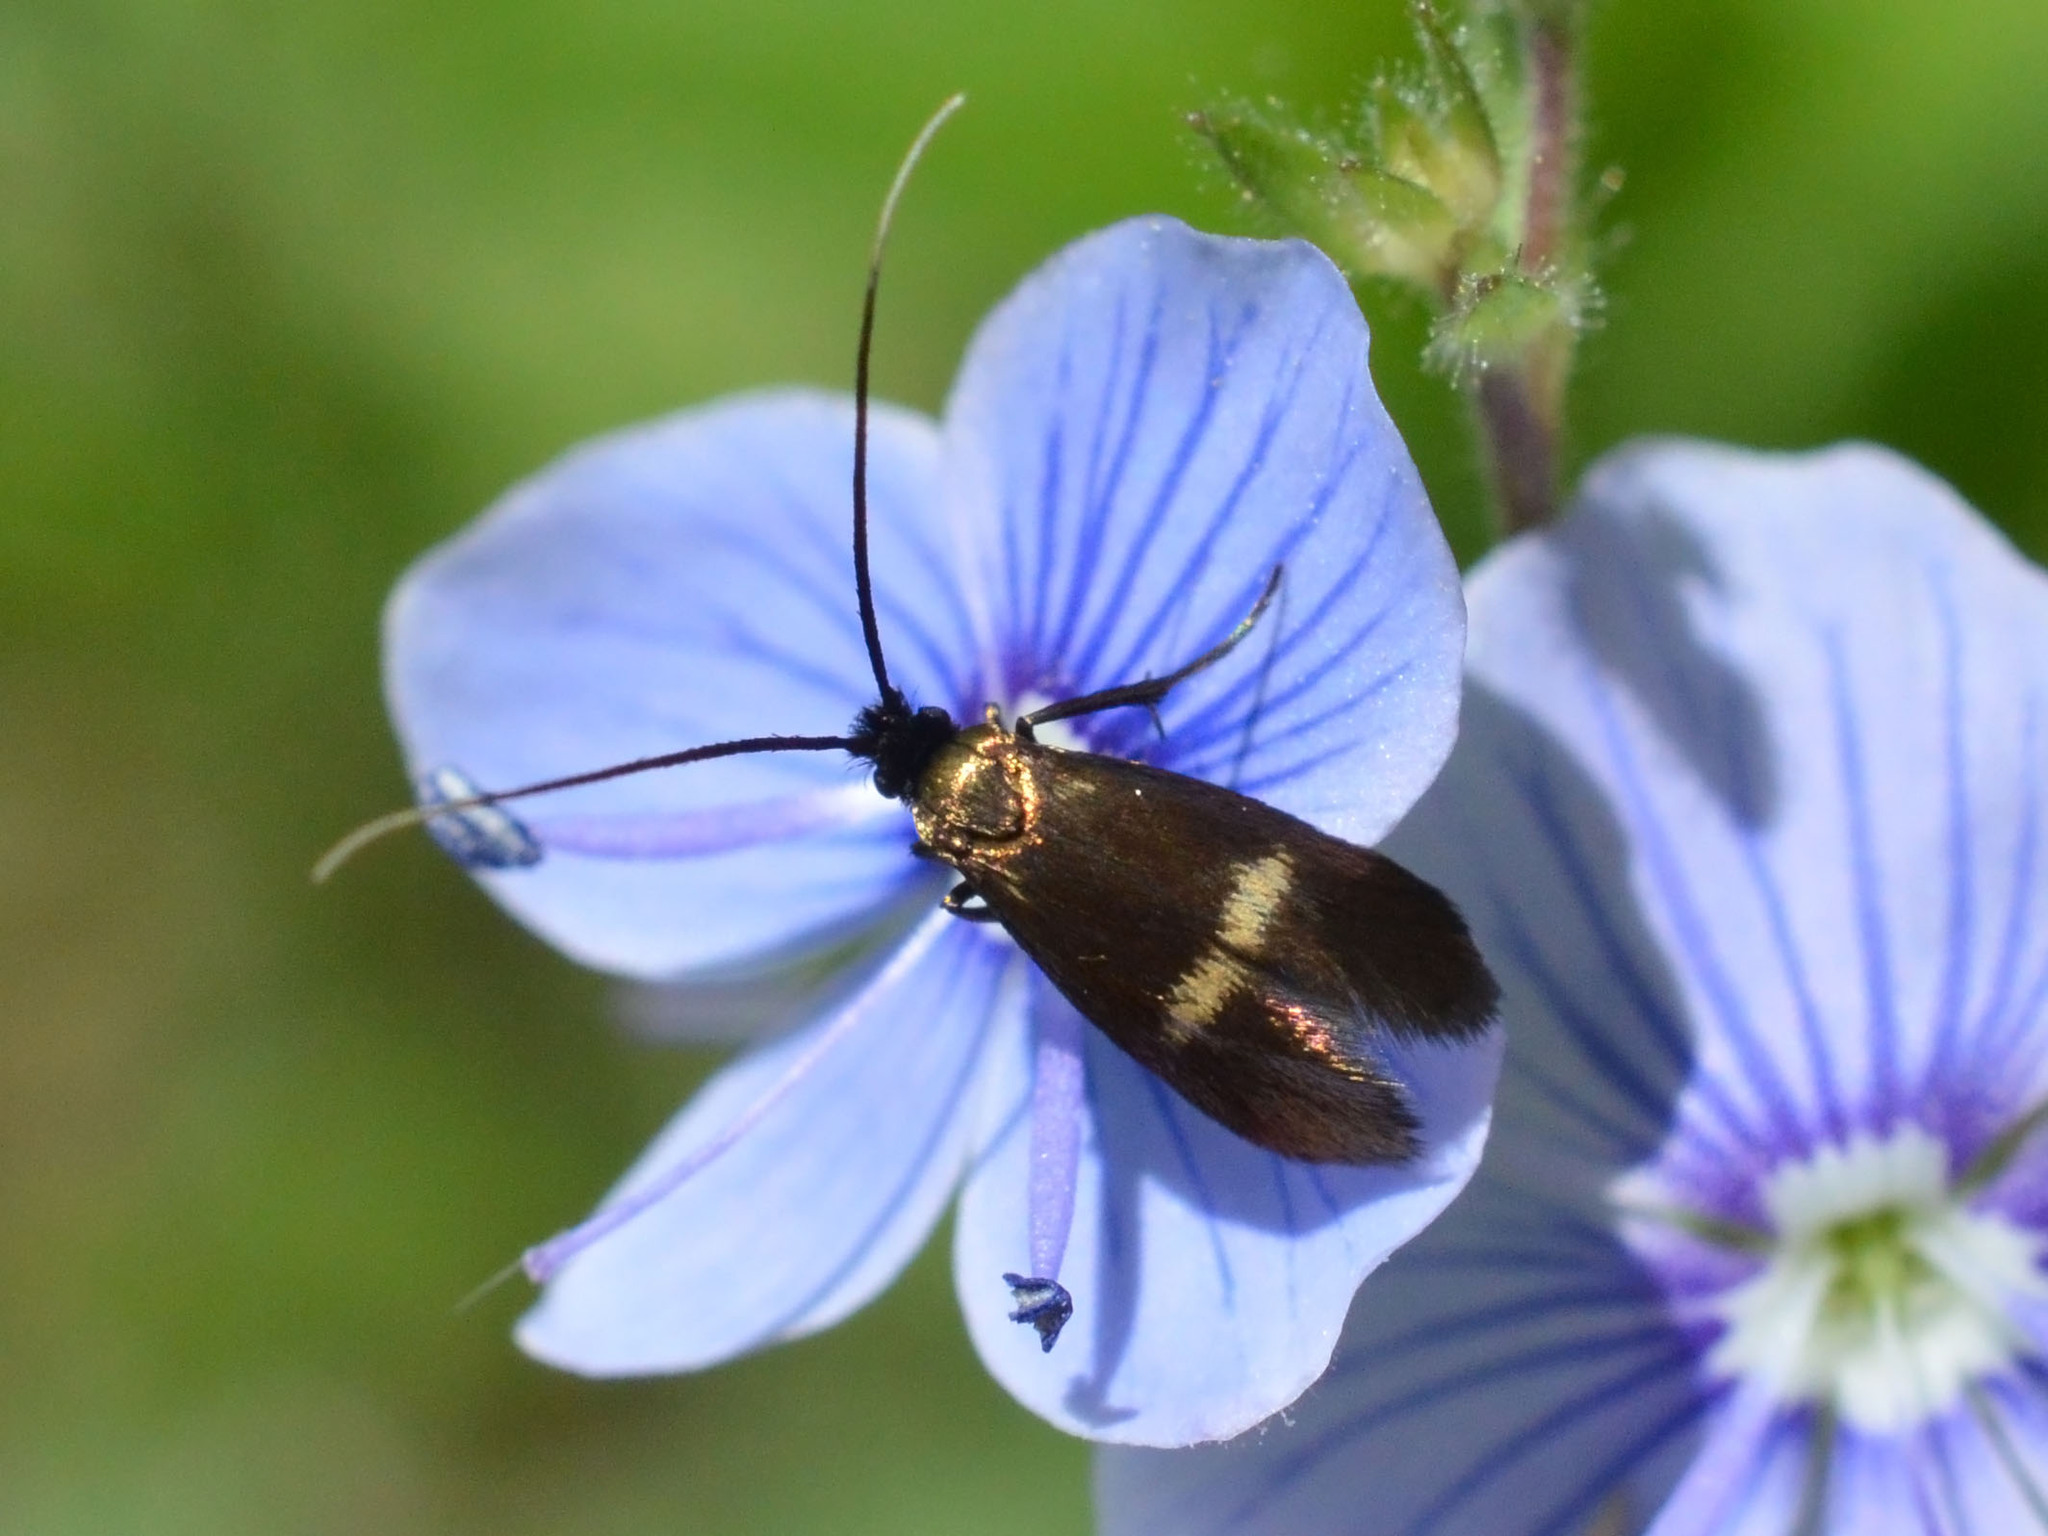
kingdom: Animalia
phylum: Arthropoda
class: Insecta
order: Lepidoptera
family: Adelidae
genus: Cauchas
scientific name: Cauchas fibulella
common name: Little long-horn
